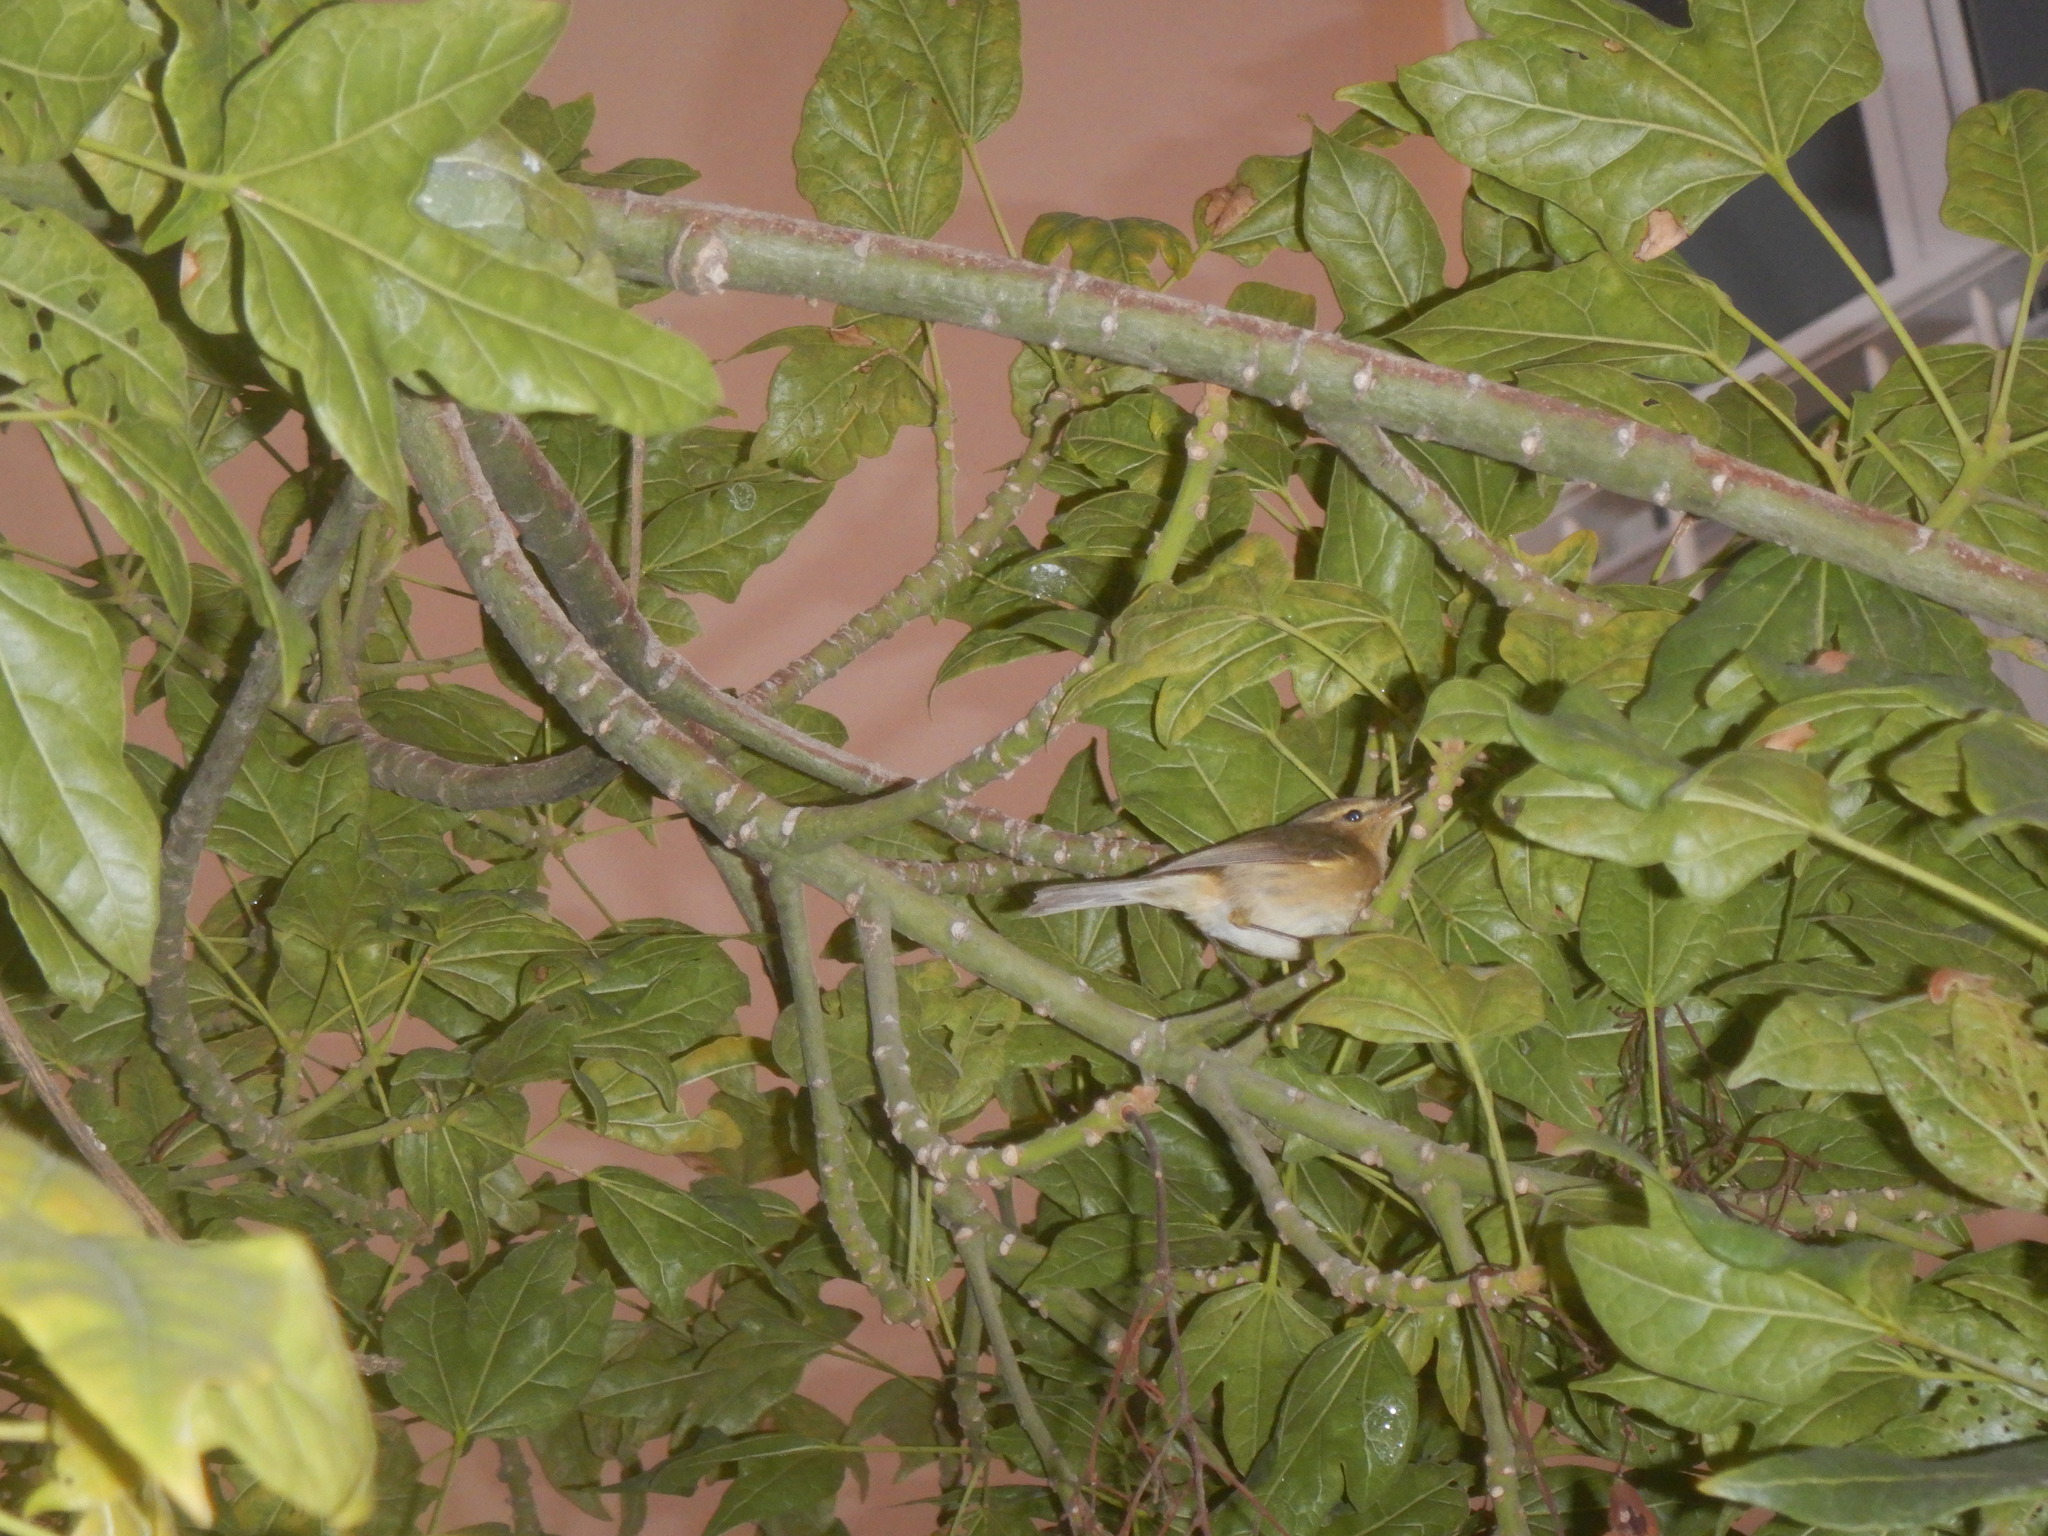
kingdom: Animalia
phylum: Chordata
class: Aves
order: Passeriformes
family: Phylloscopidae
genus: Phylloscopus
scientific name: Phylloscopus canariensis
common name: Canary islands chiffchaff
